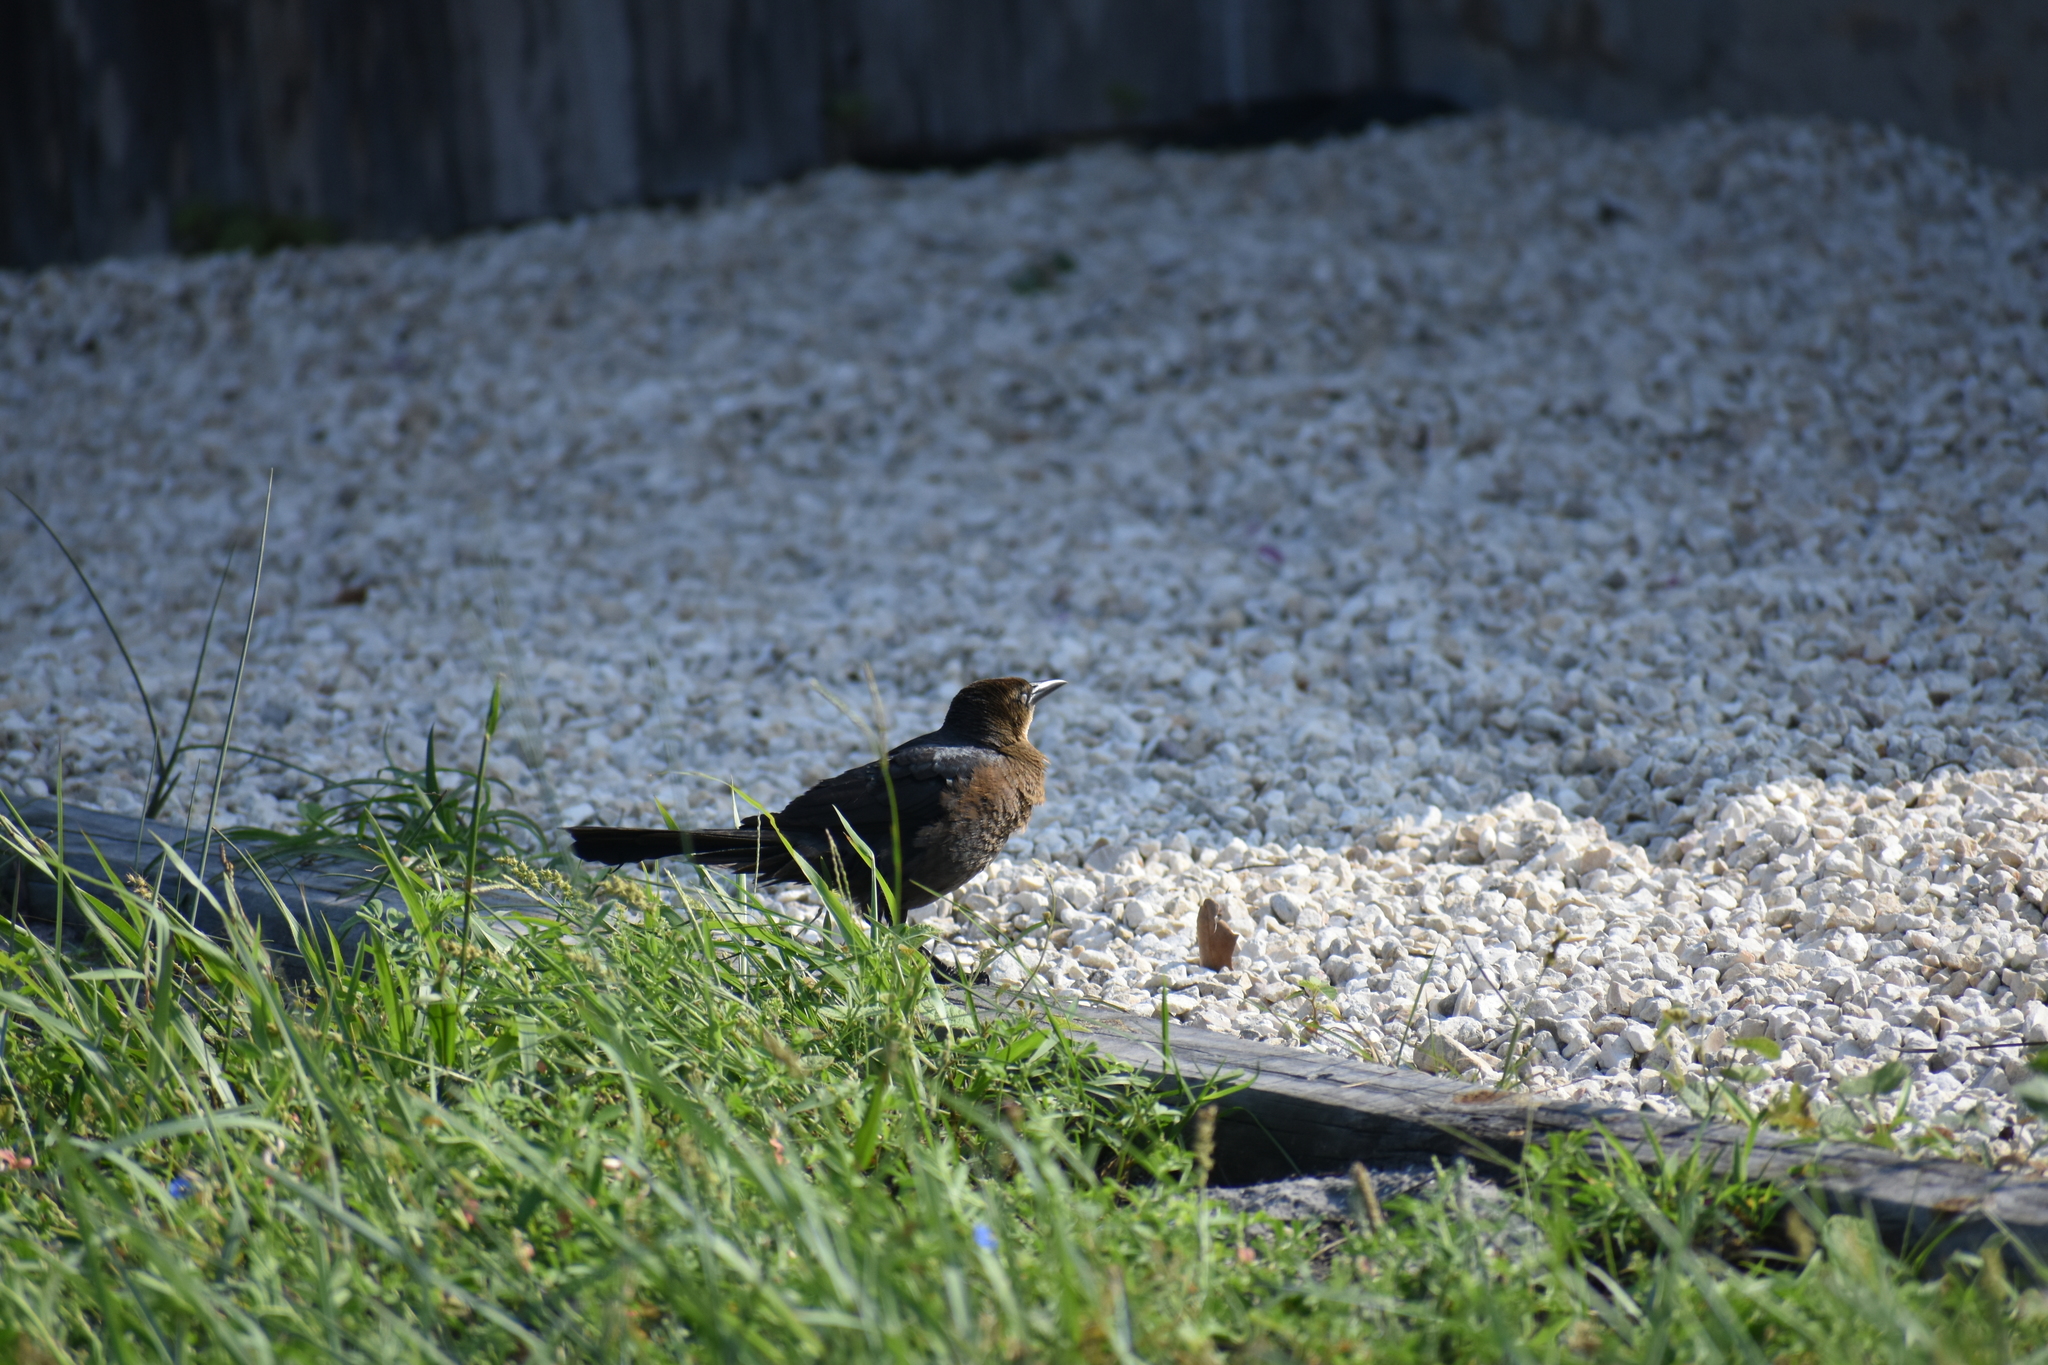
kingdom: Animalia
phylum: Chordata
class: Aves
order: Passeriformes
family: Icteridae
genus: Quiscalus
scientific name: Quiscalus mexicanus
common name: Great-tailed grackle
